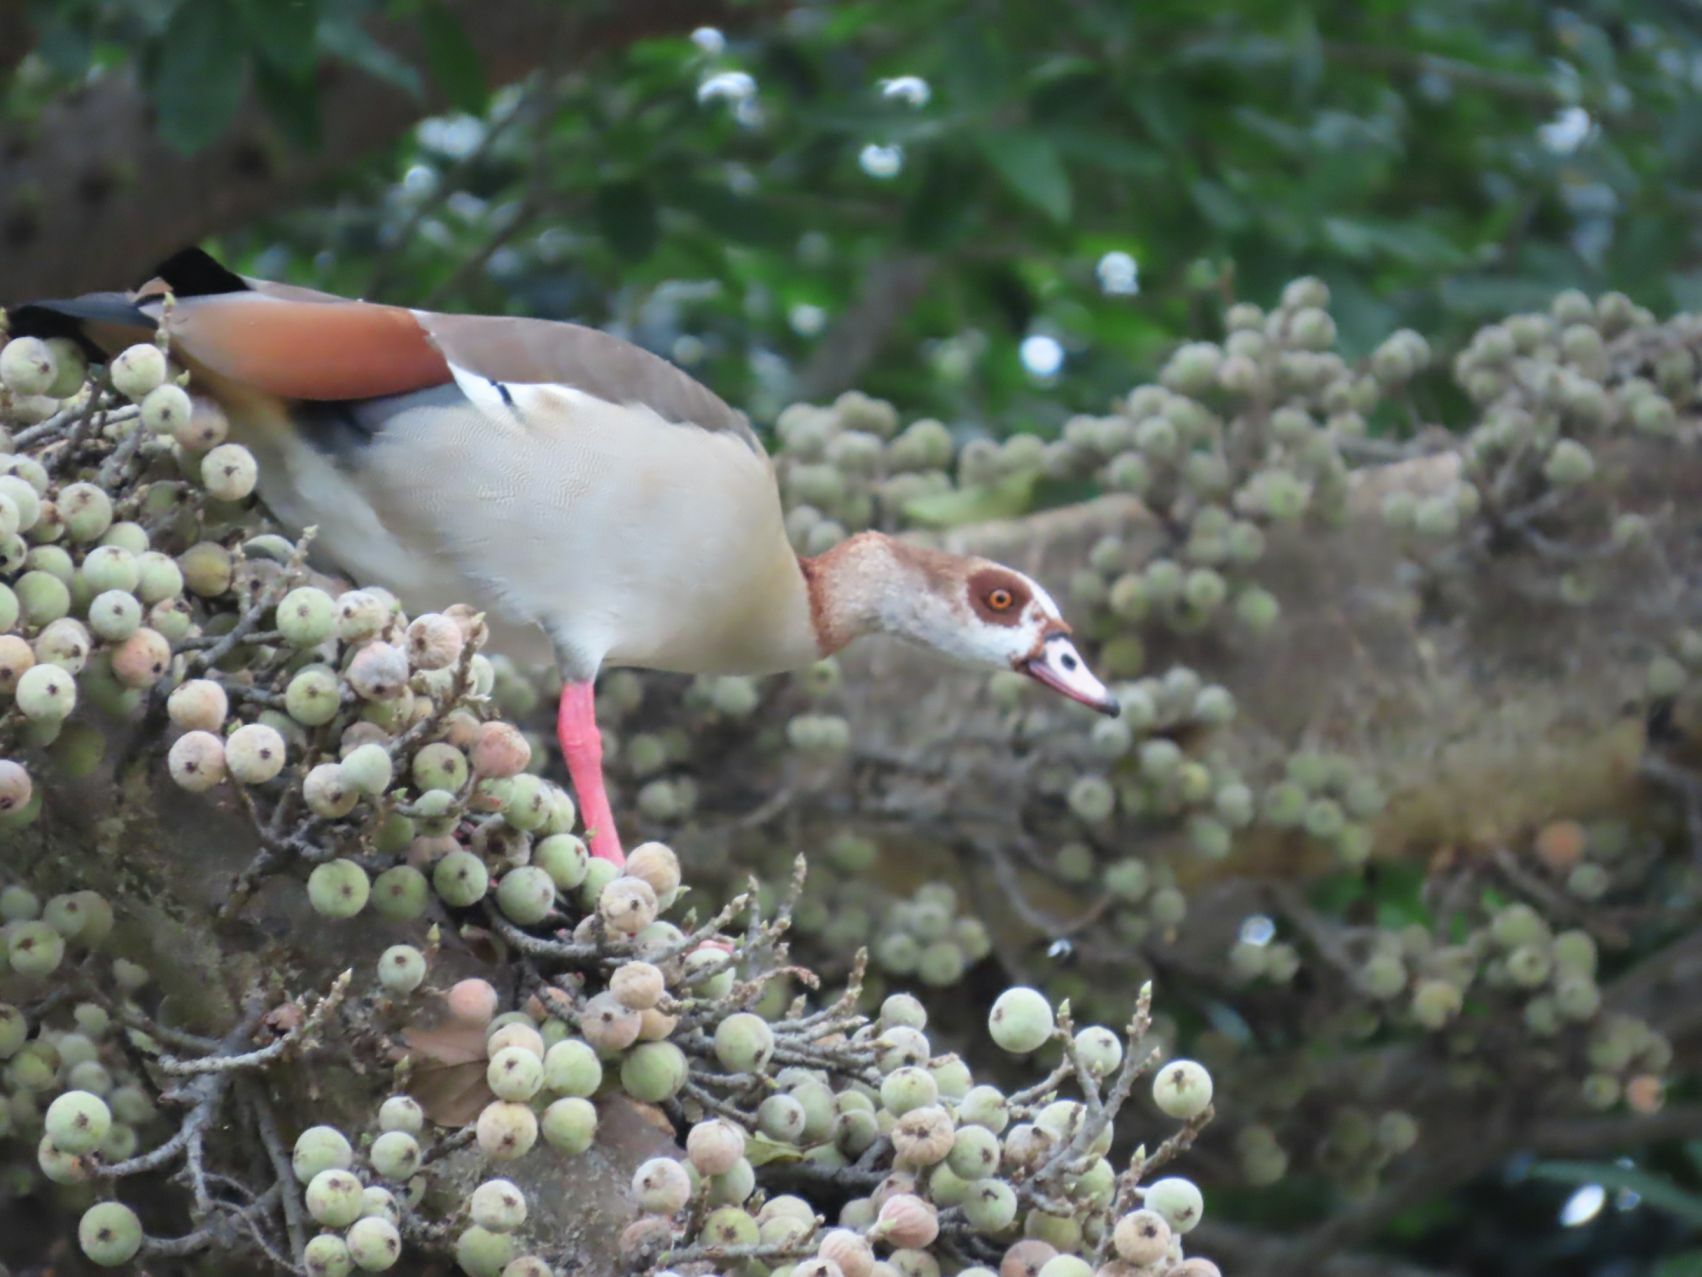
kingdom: Animalia
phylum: Chordata
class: Aves
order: Anseriformes
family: Anatidae
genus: Alopochen
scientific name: Alopochen aegyptiaca
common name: Egyptian goose
